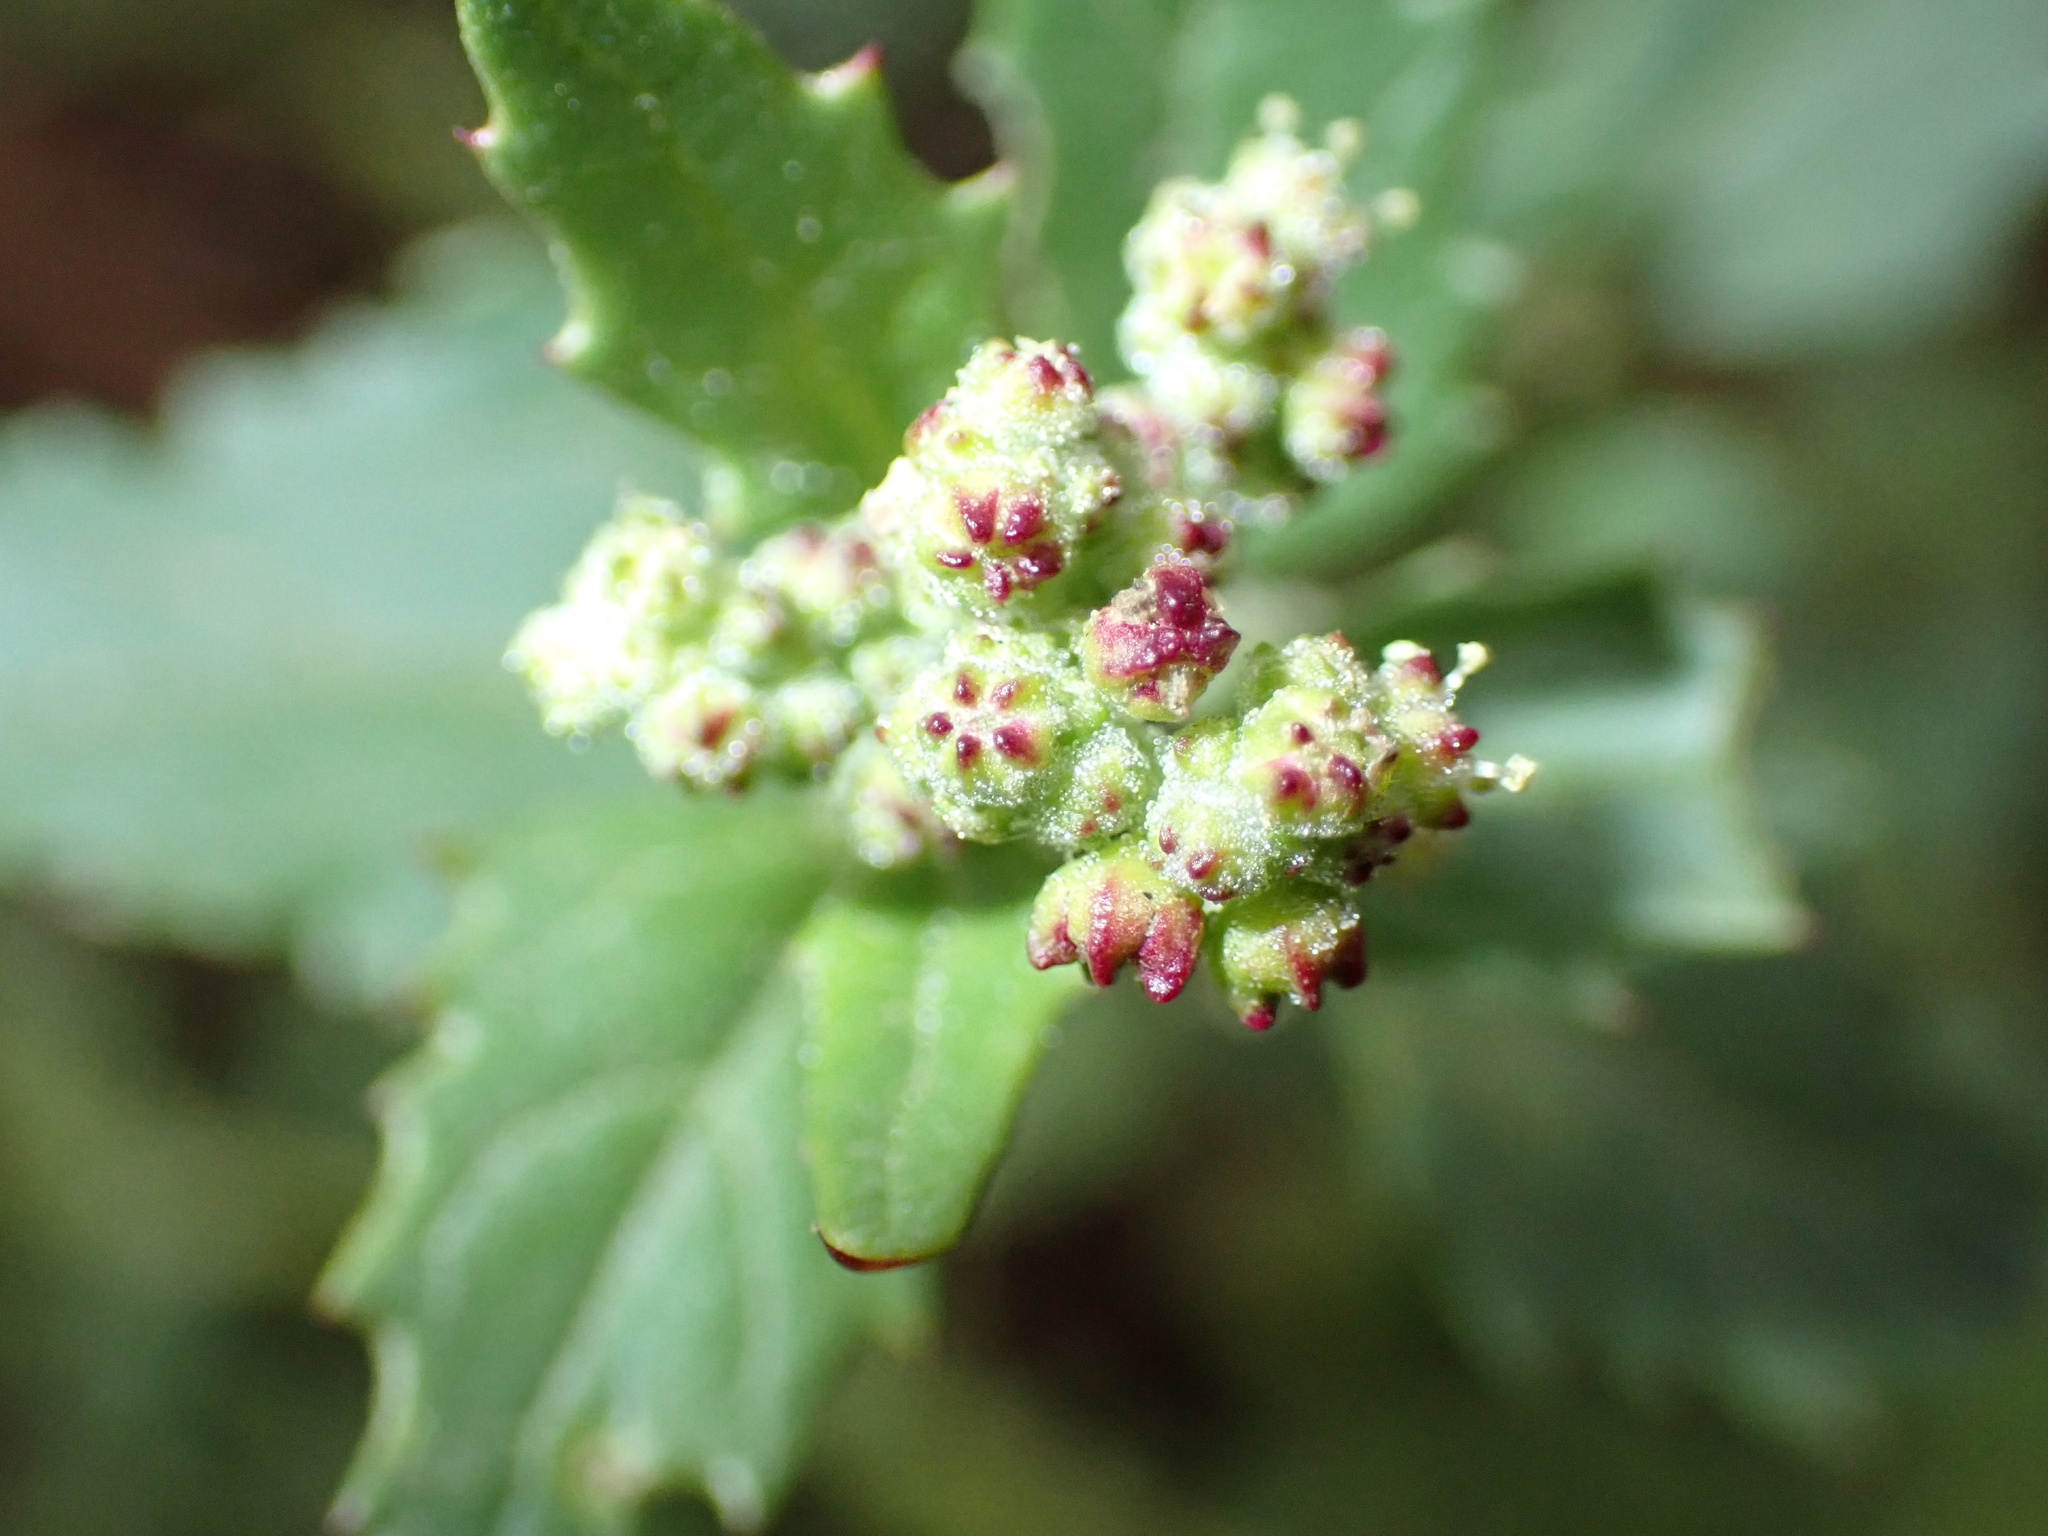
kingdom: Plantae
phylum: Tracheophyta
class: Magnoliopsida
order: Caryophyllales
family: Amaranthaceae
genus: Chenopodiastrum
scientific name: Chenopodiastrum murale
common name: Sowbane
